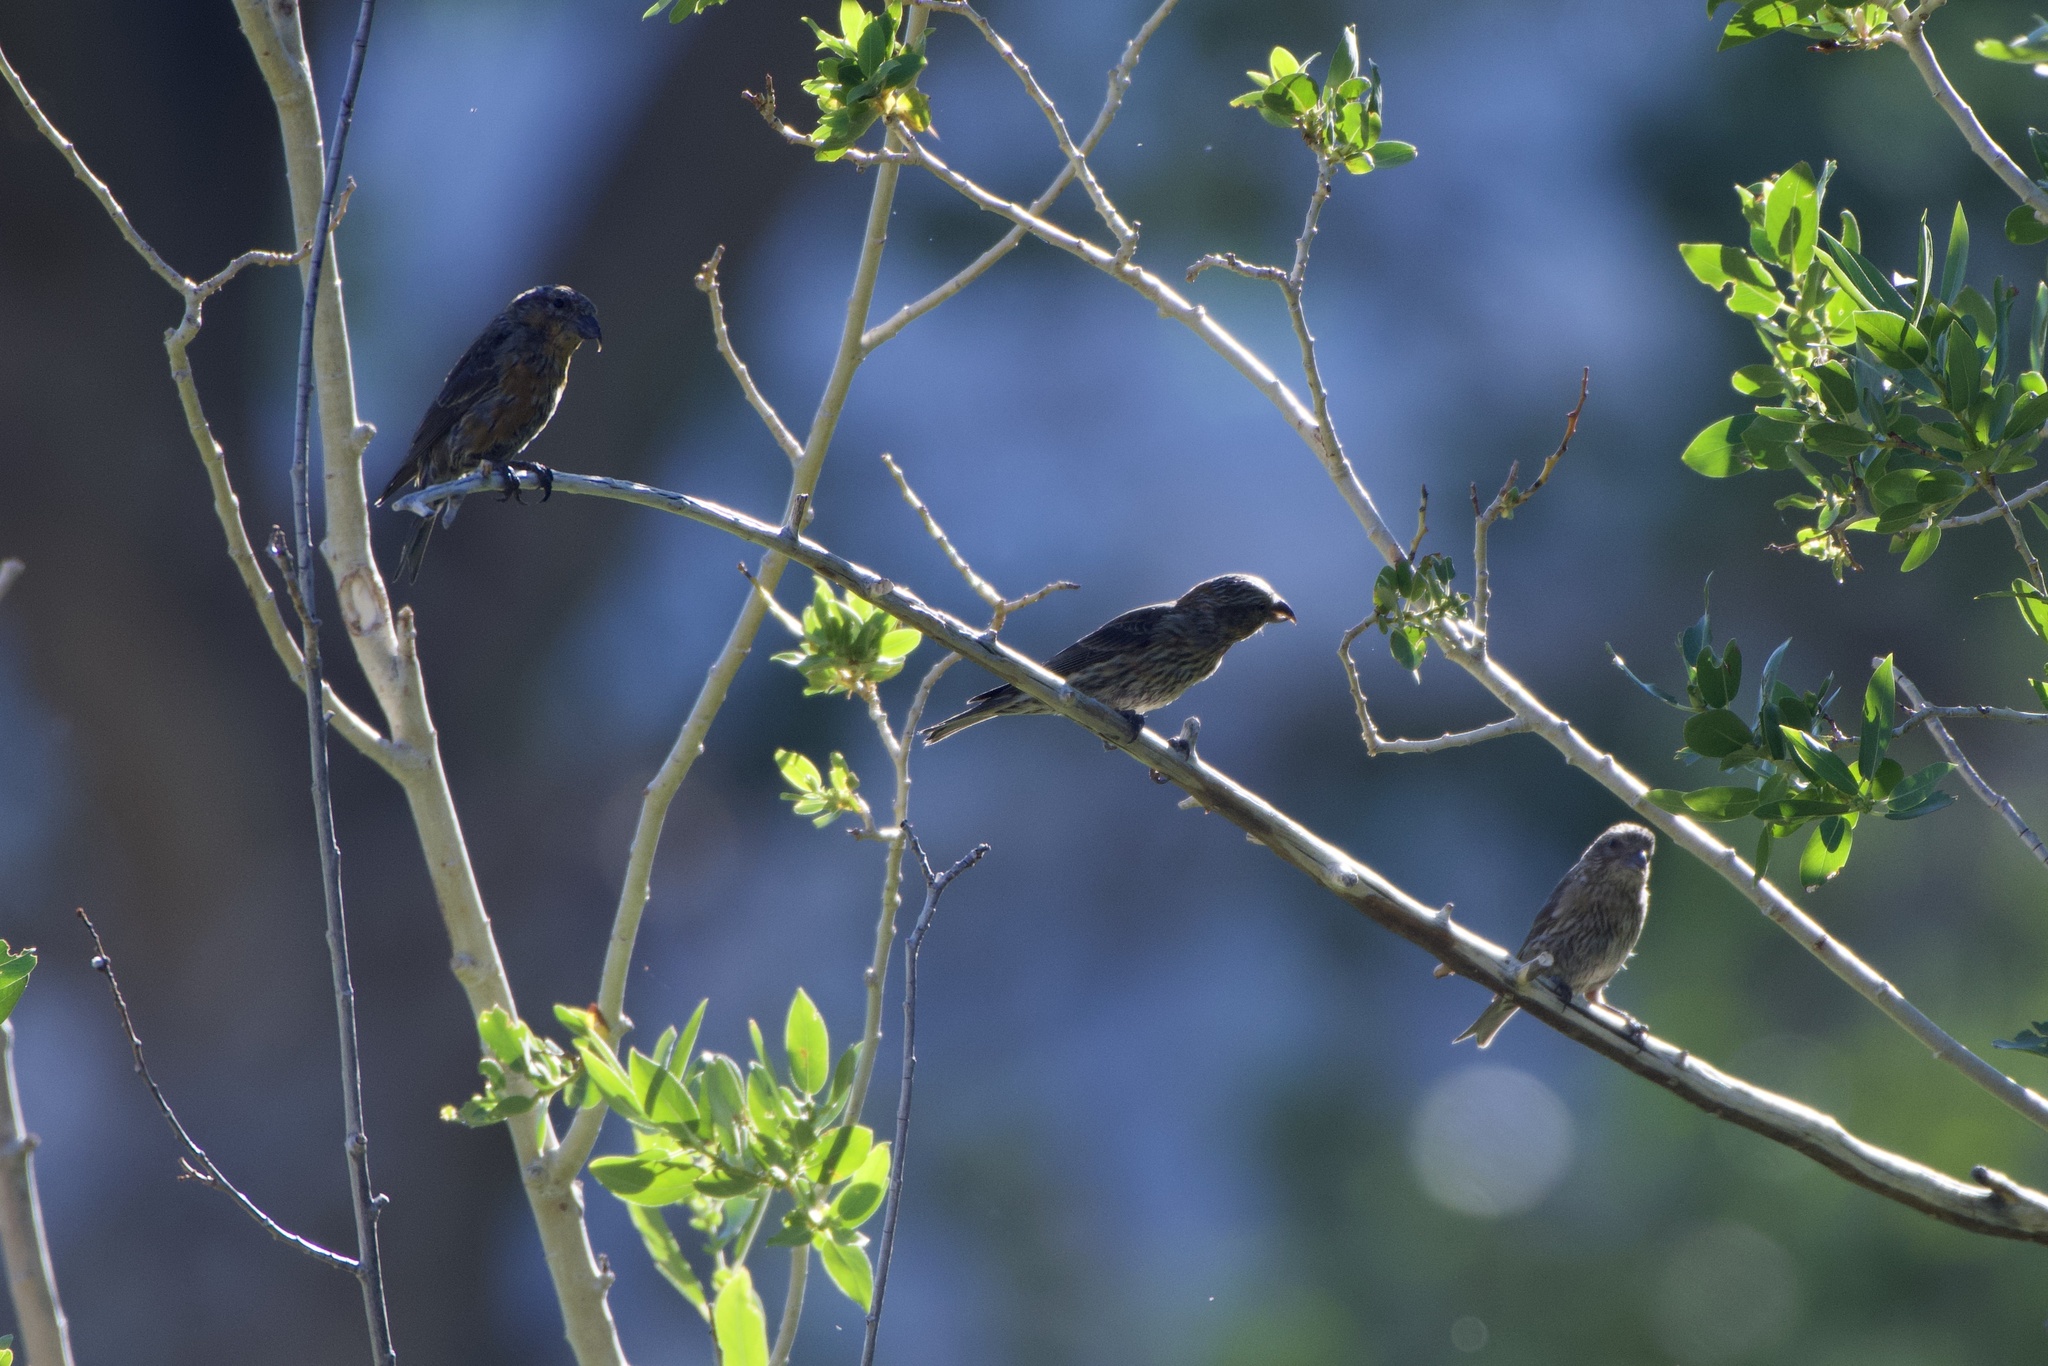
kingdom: Animalia
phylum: Chordata
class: Aves
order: Passeriformes
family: Fringillidae
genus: Loxia
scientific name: Loxia curvirostra
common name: Red crossbill
